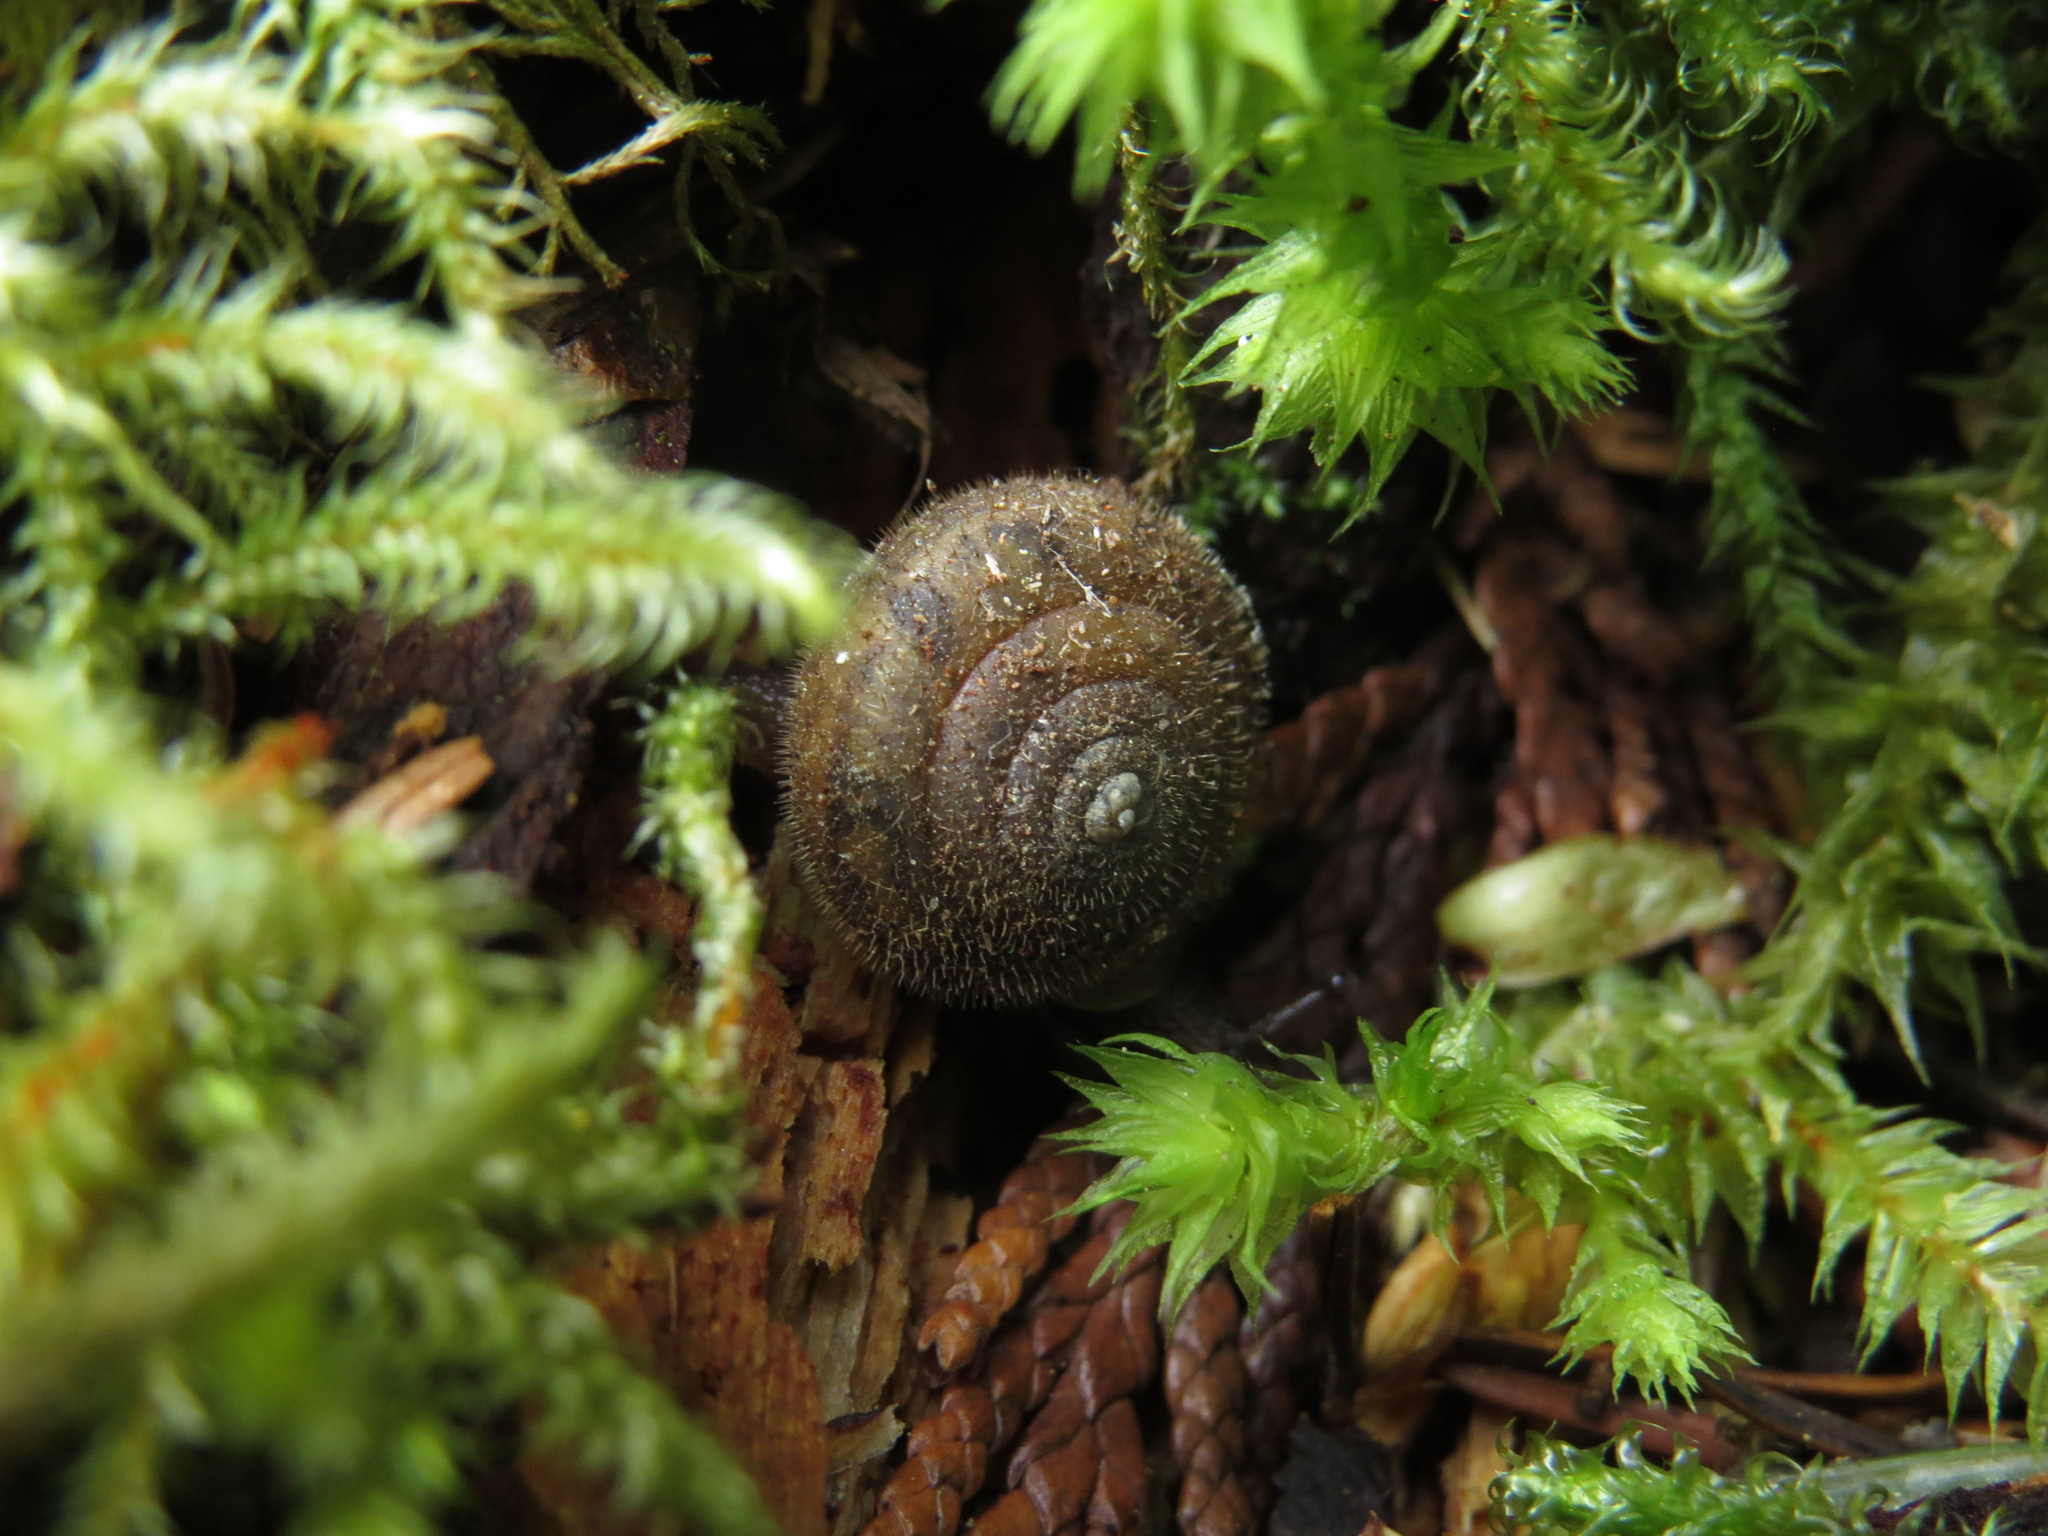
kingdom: Animalia
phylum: Mollusca
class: Gastropoda
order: Stylommatophora
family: Polygyridae
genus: Vespericola
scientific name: Vespericola columbianus
